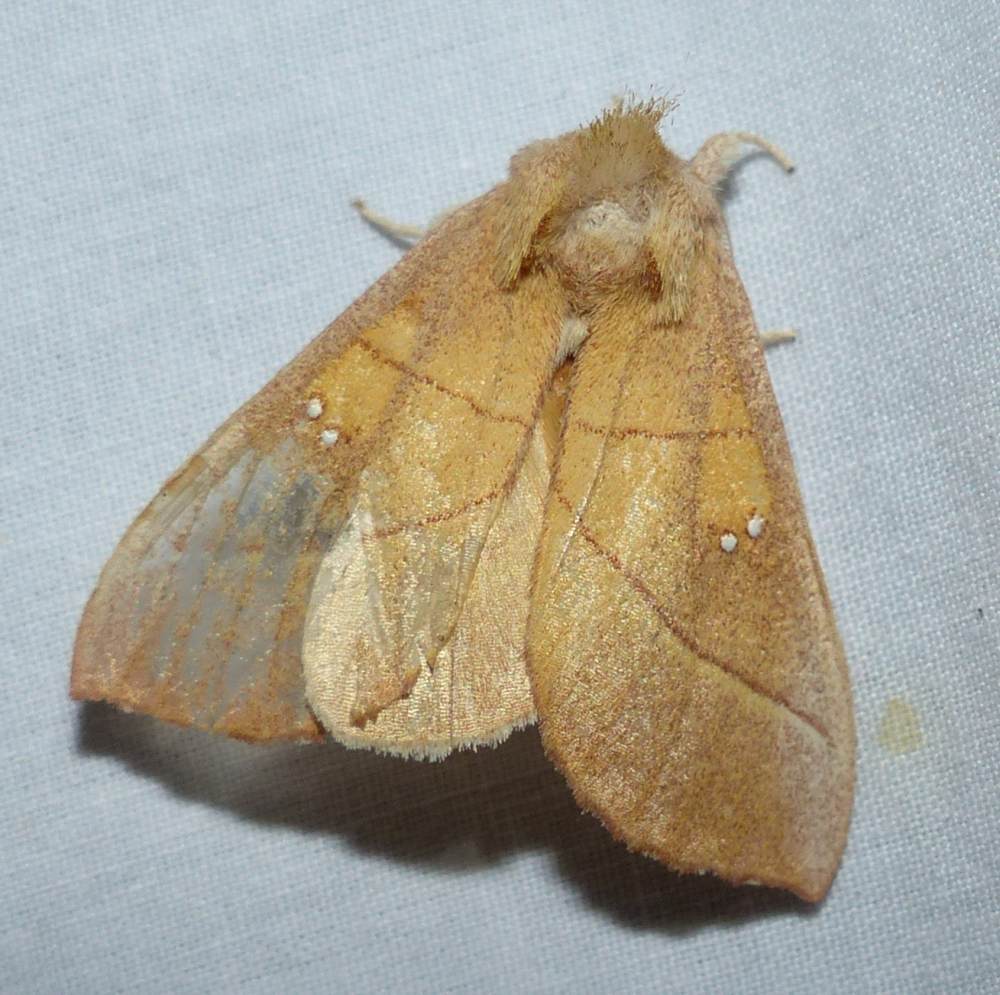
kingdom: Animalia
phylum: Arthropoda
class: Insecta
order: Lepidoptera
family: Notodontidae
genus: Nadata
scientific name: Nadata gibbosa
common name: White-dotted prominent
